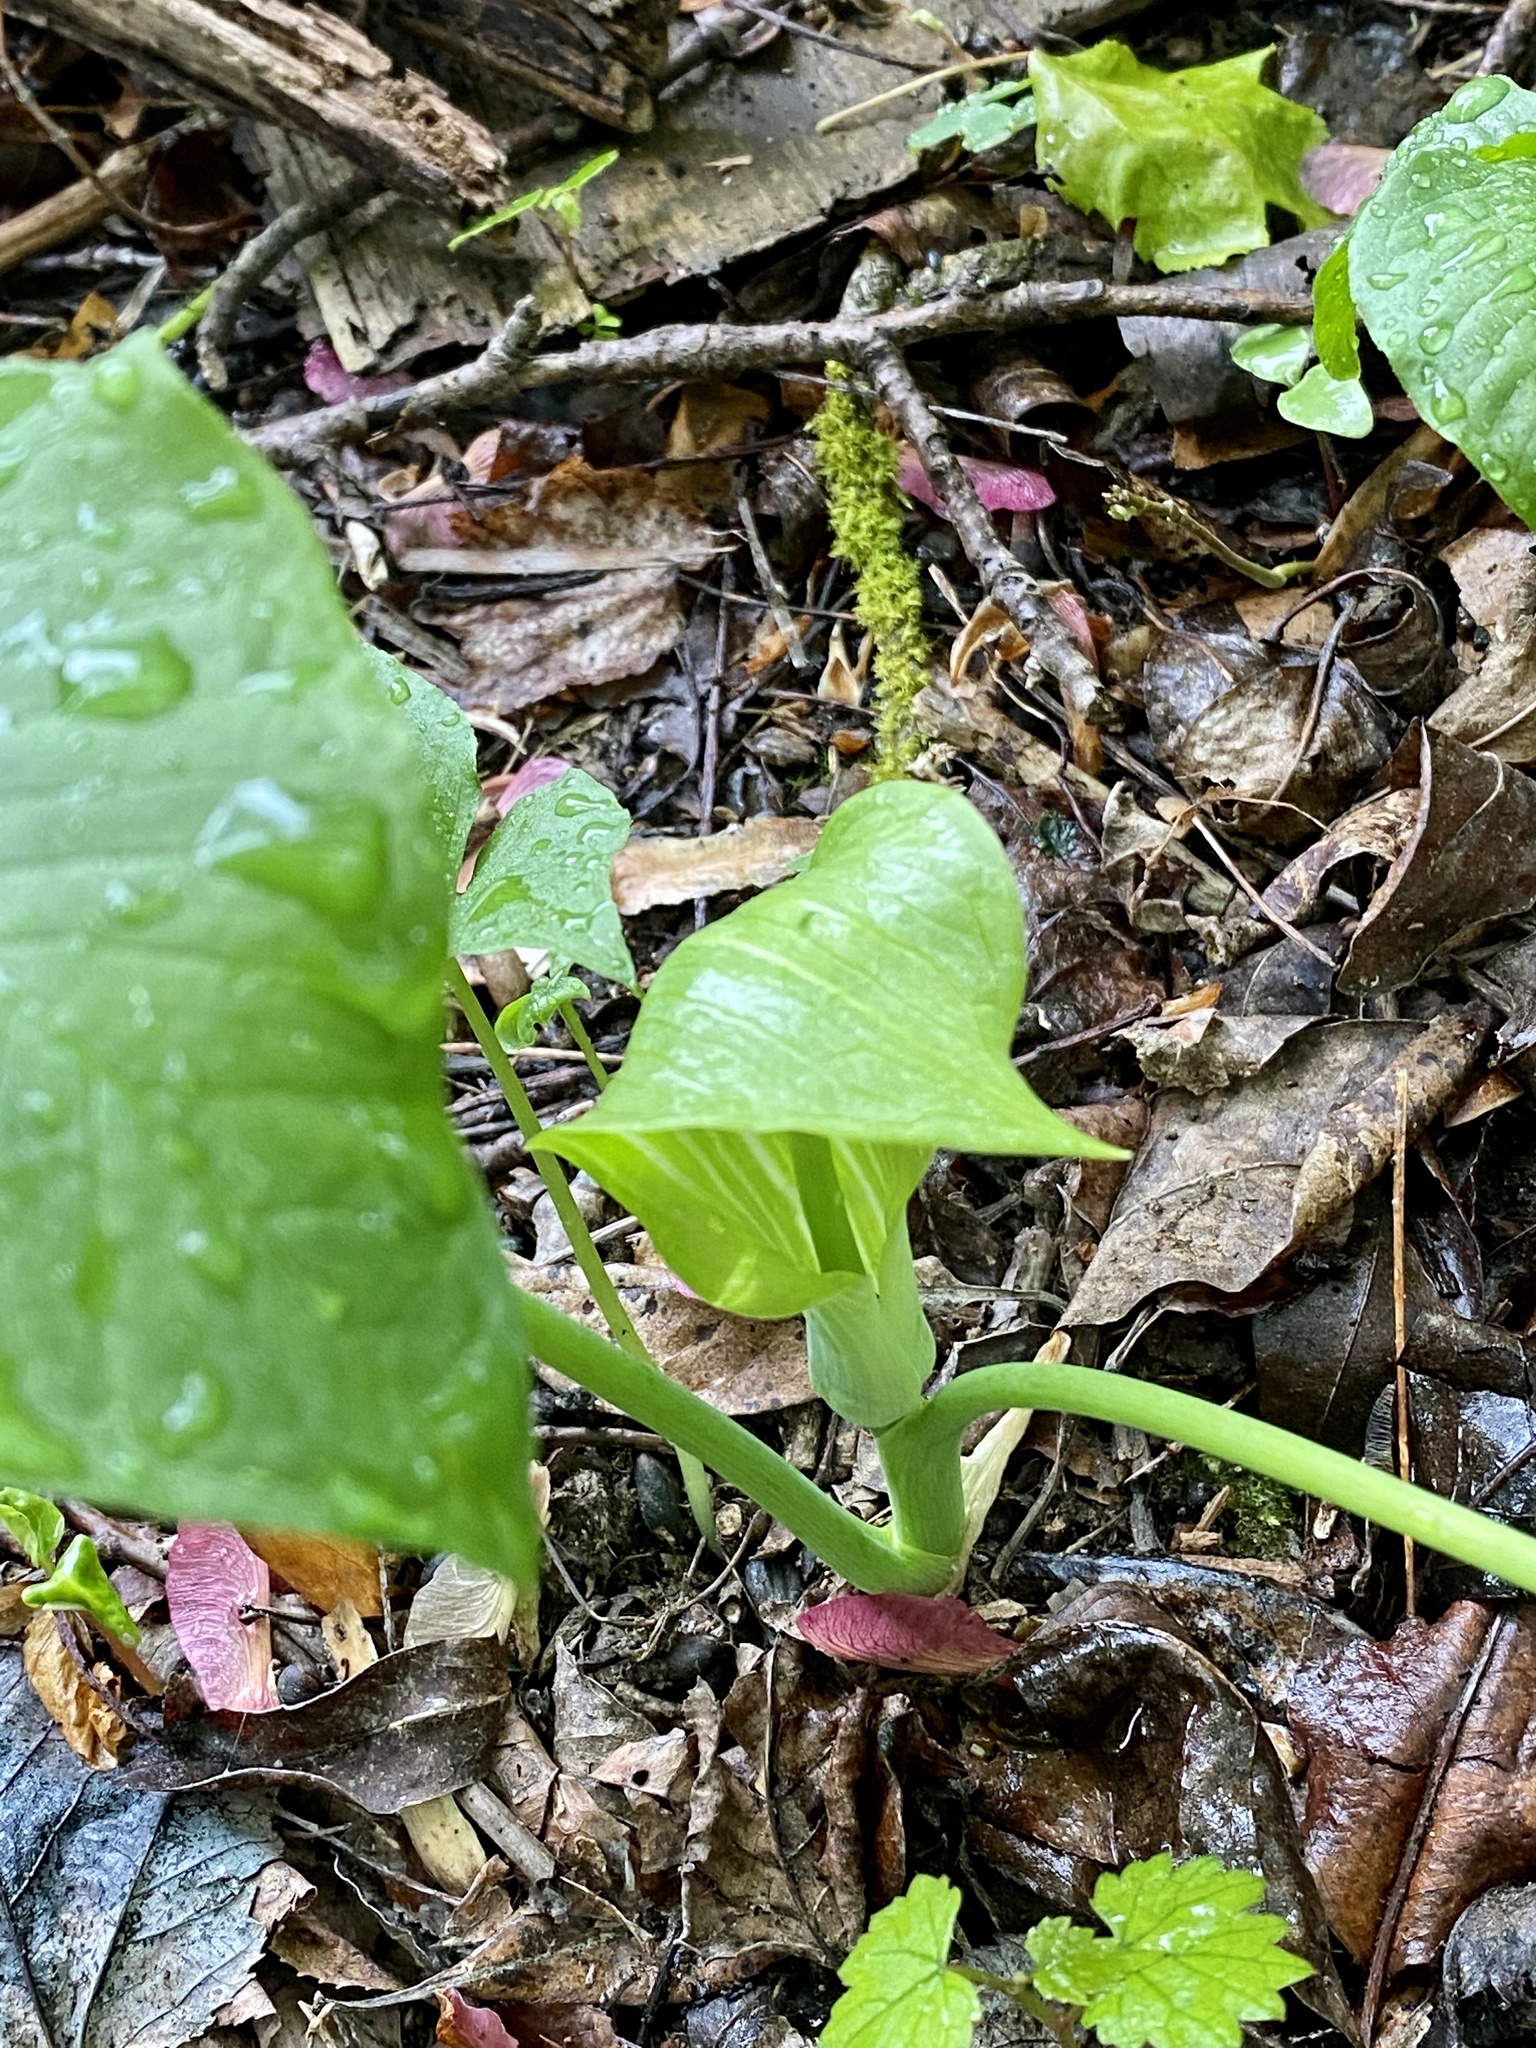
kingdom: Plantae
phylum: Tracheophyta
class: Liliopsida
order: Alismatales
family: Araceae
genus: Arisaema
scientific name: Arisaema triphyllum
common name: Jack-in-the-pulpit
